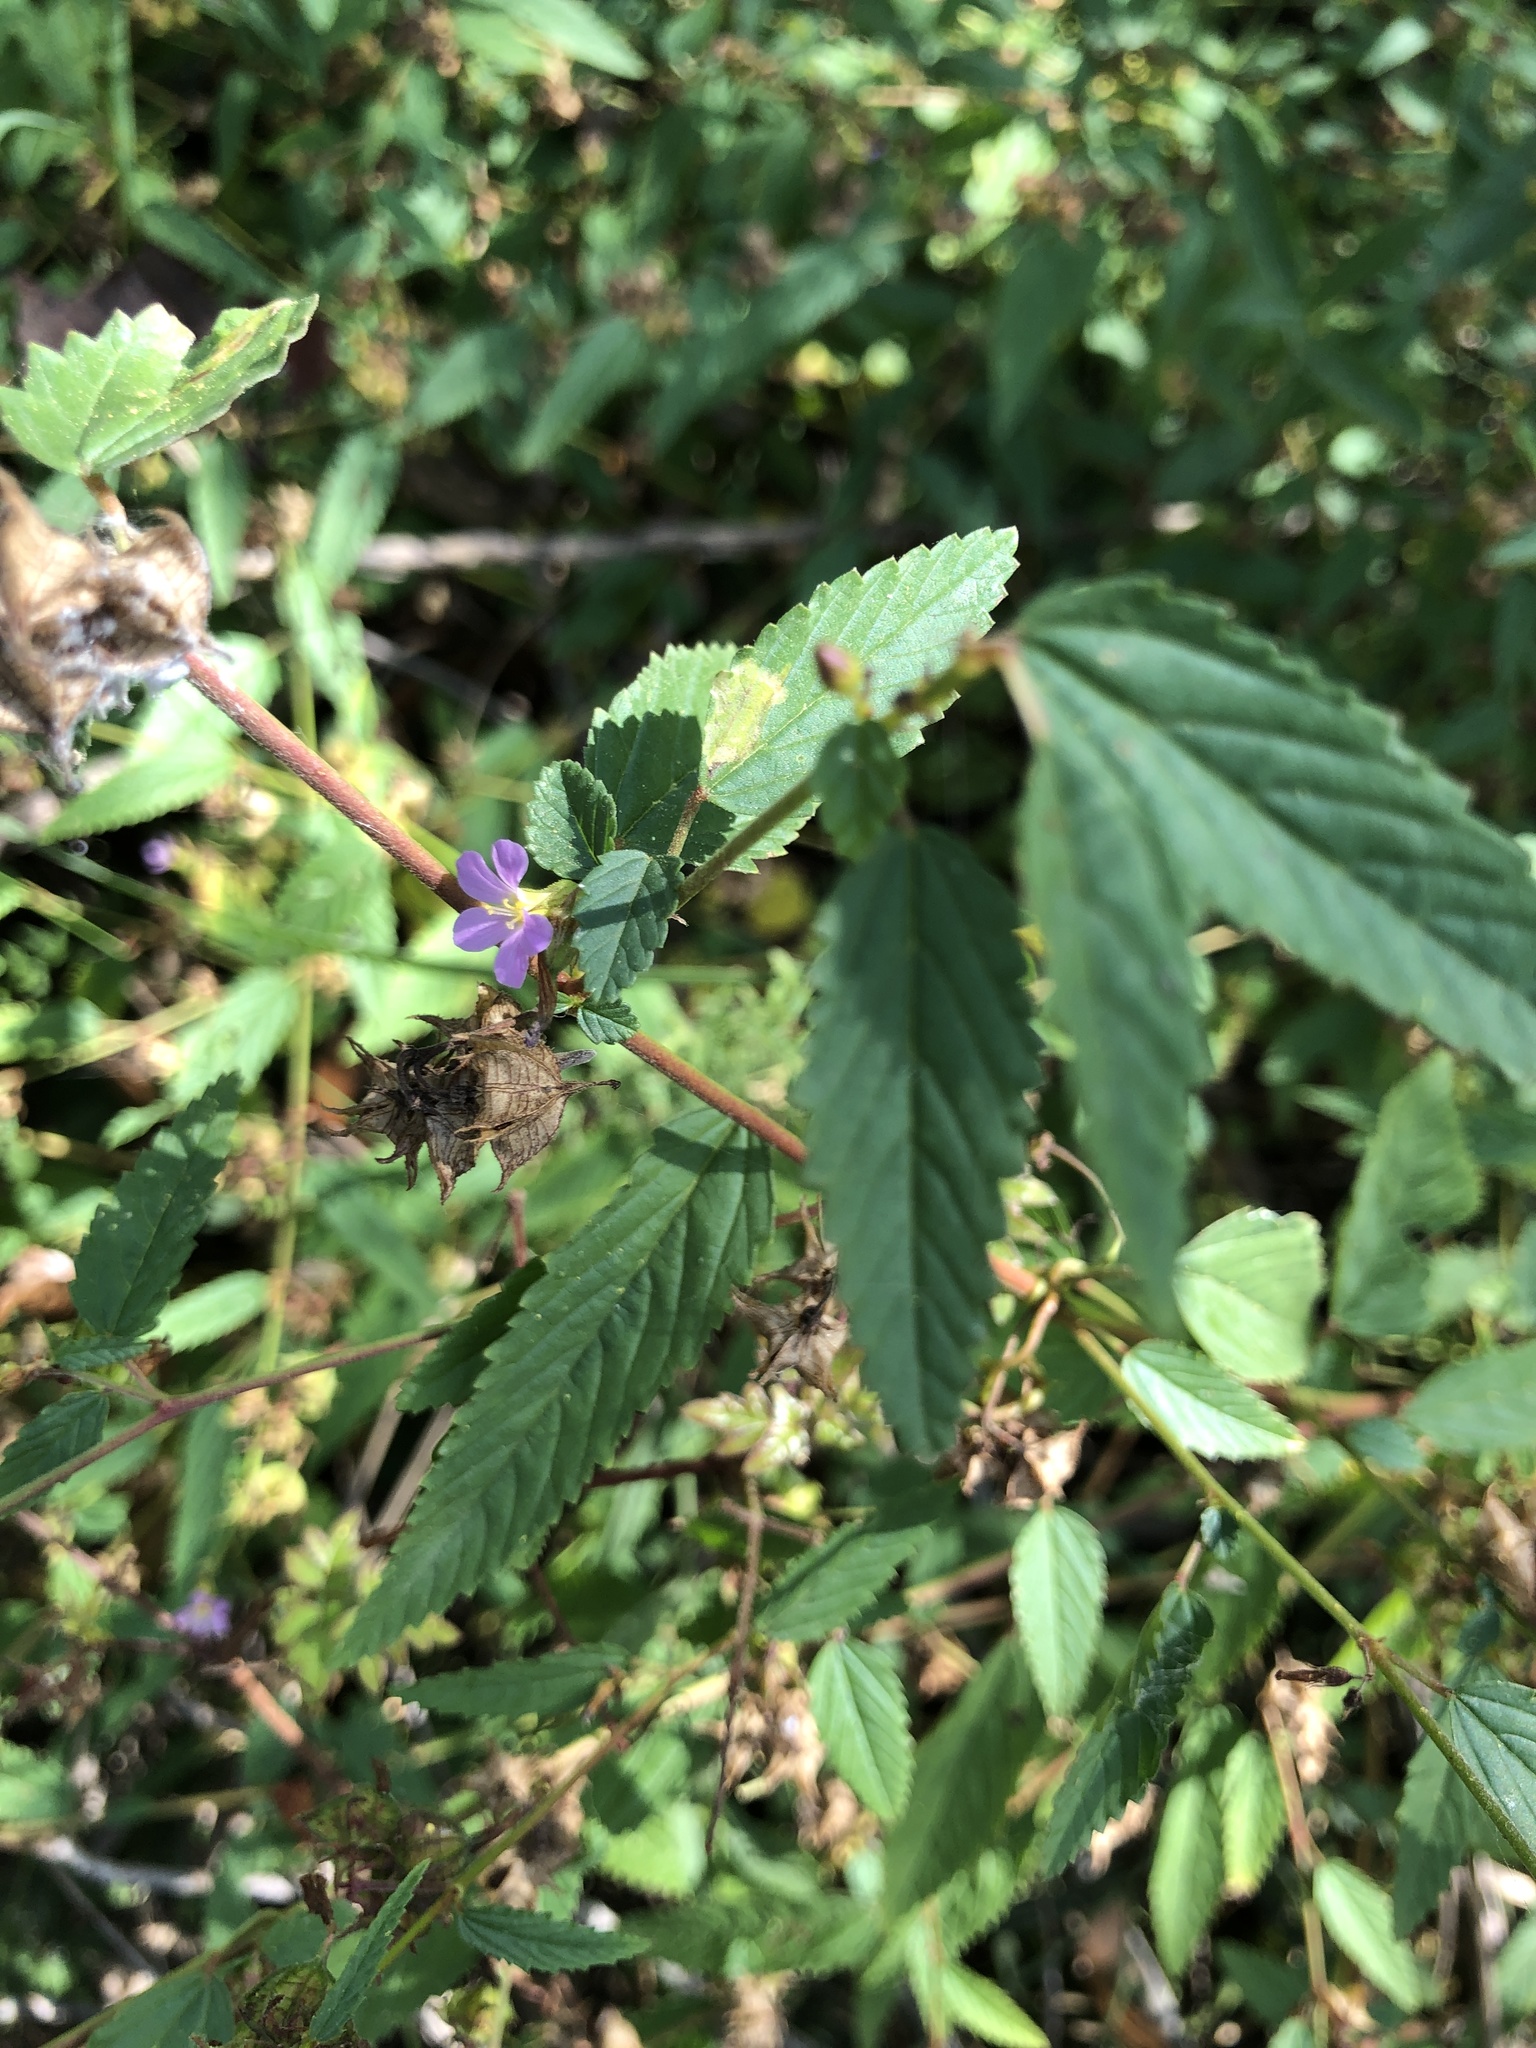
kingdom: Plantae
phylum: Tracheophyta
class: Magnoliopsida
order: Malvales
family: Malvaceae
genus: Melochia
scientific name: Melochia pyramidata
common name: Pyramidflower
